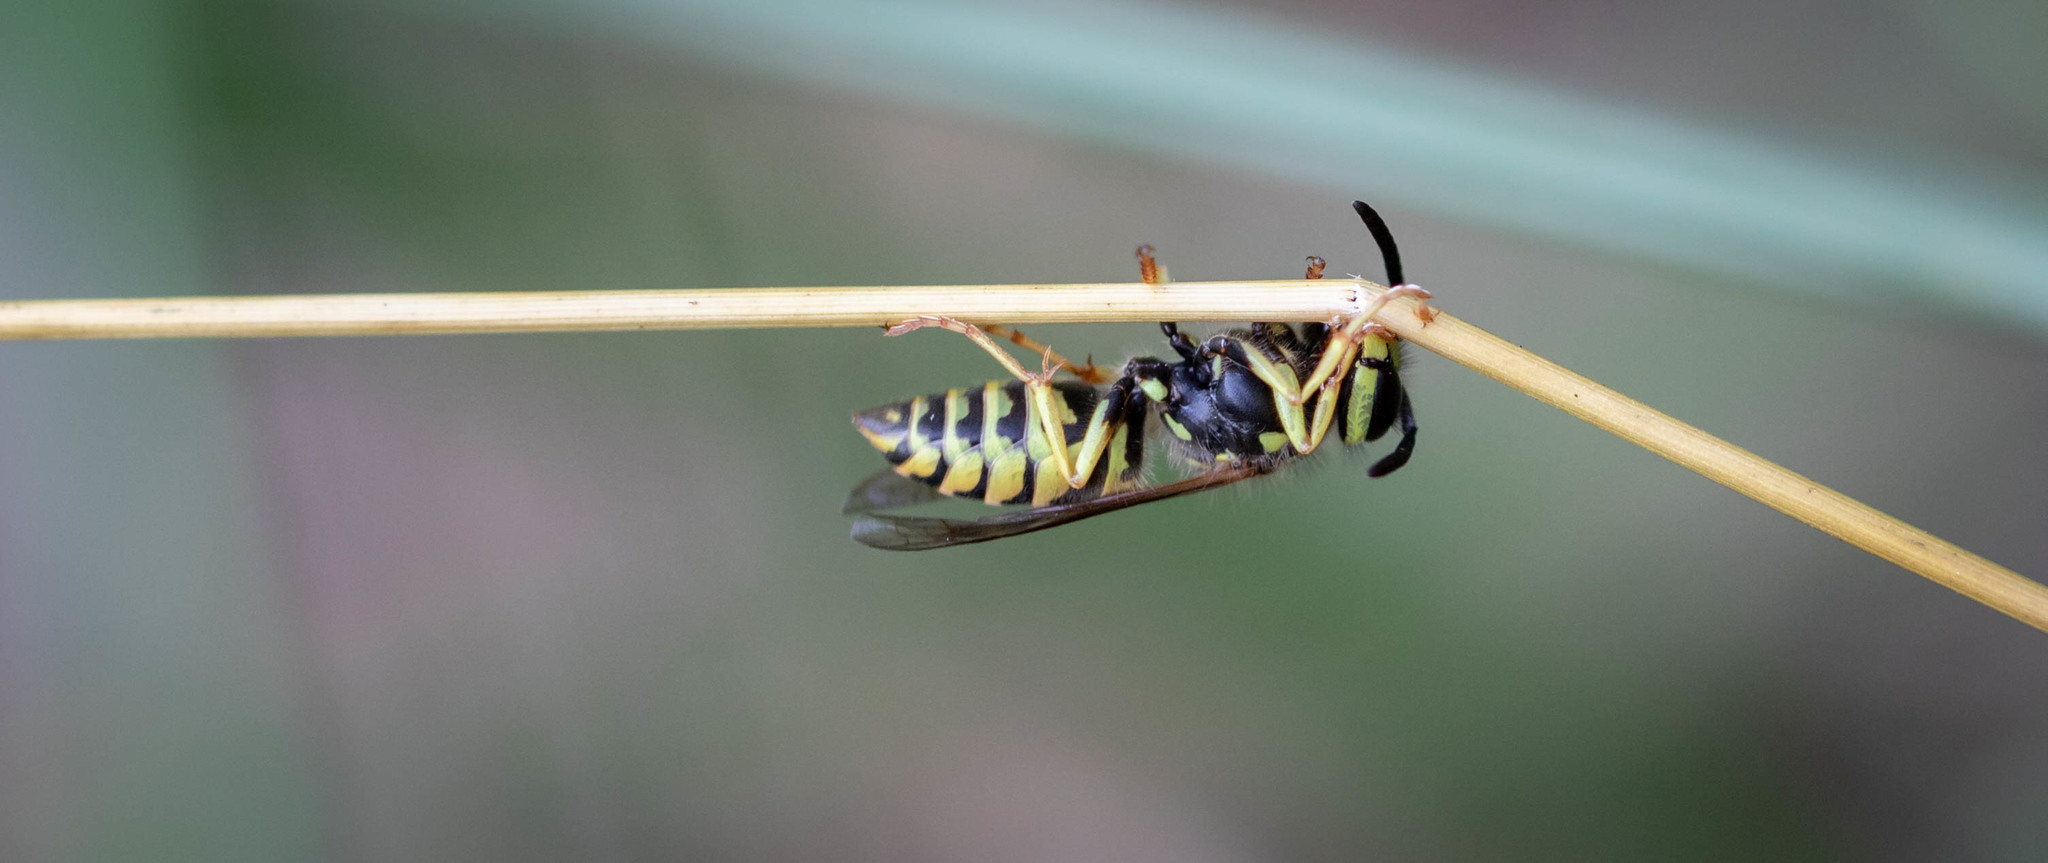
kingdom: Animalia
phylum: Arthropoda
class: Insecta
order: Hymenoptera
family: Vespidae
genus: Vespula
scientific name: Vespula
